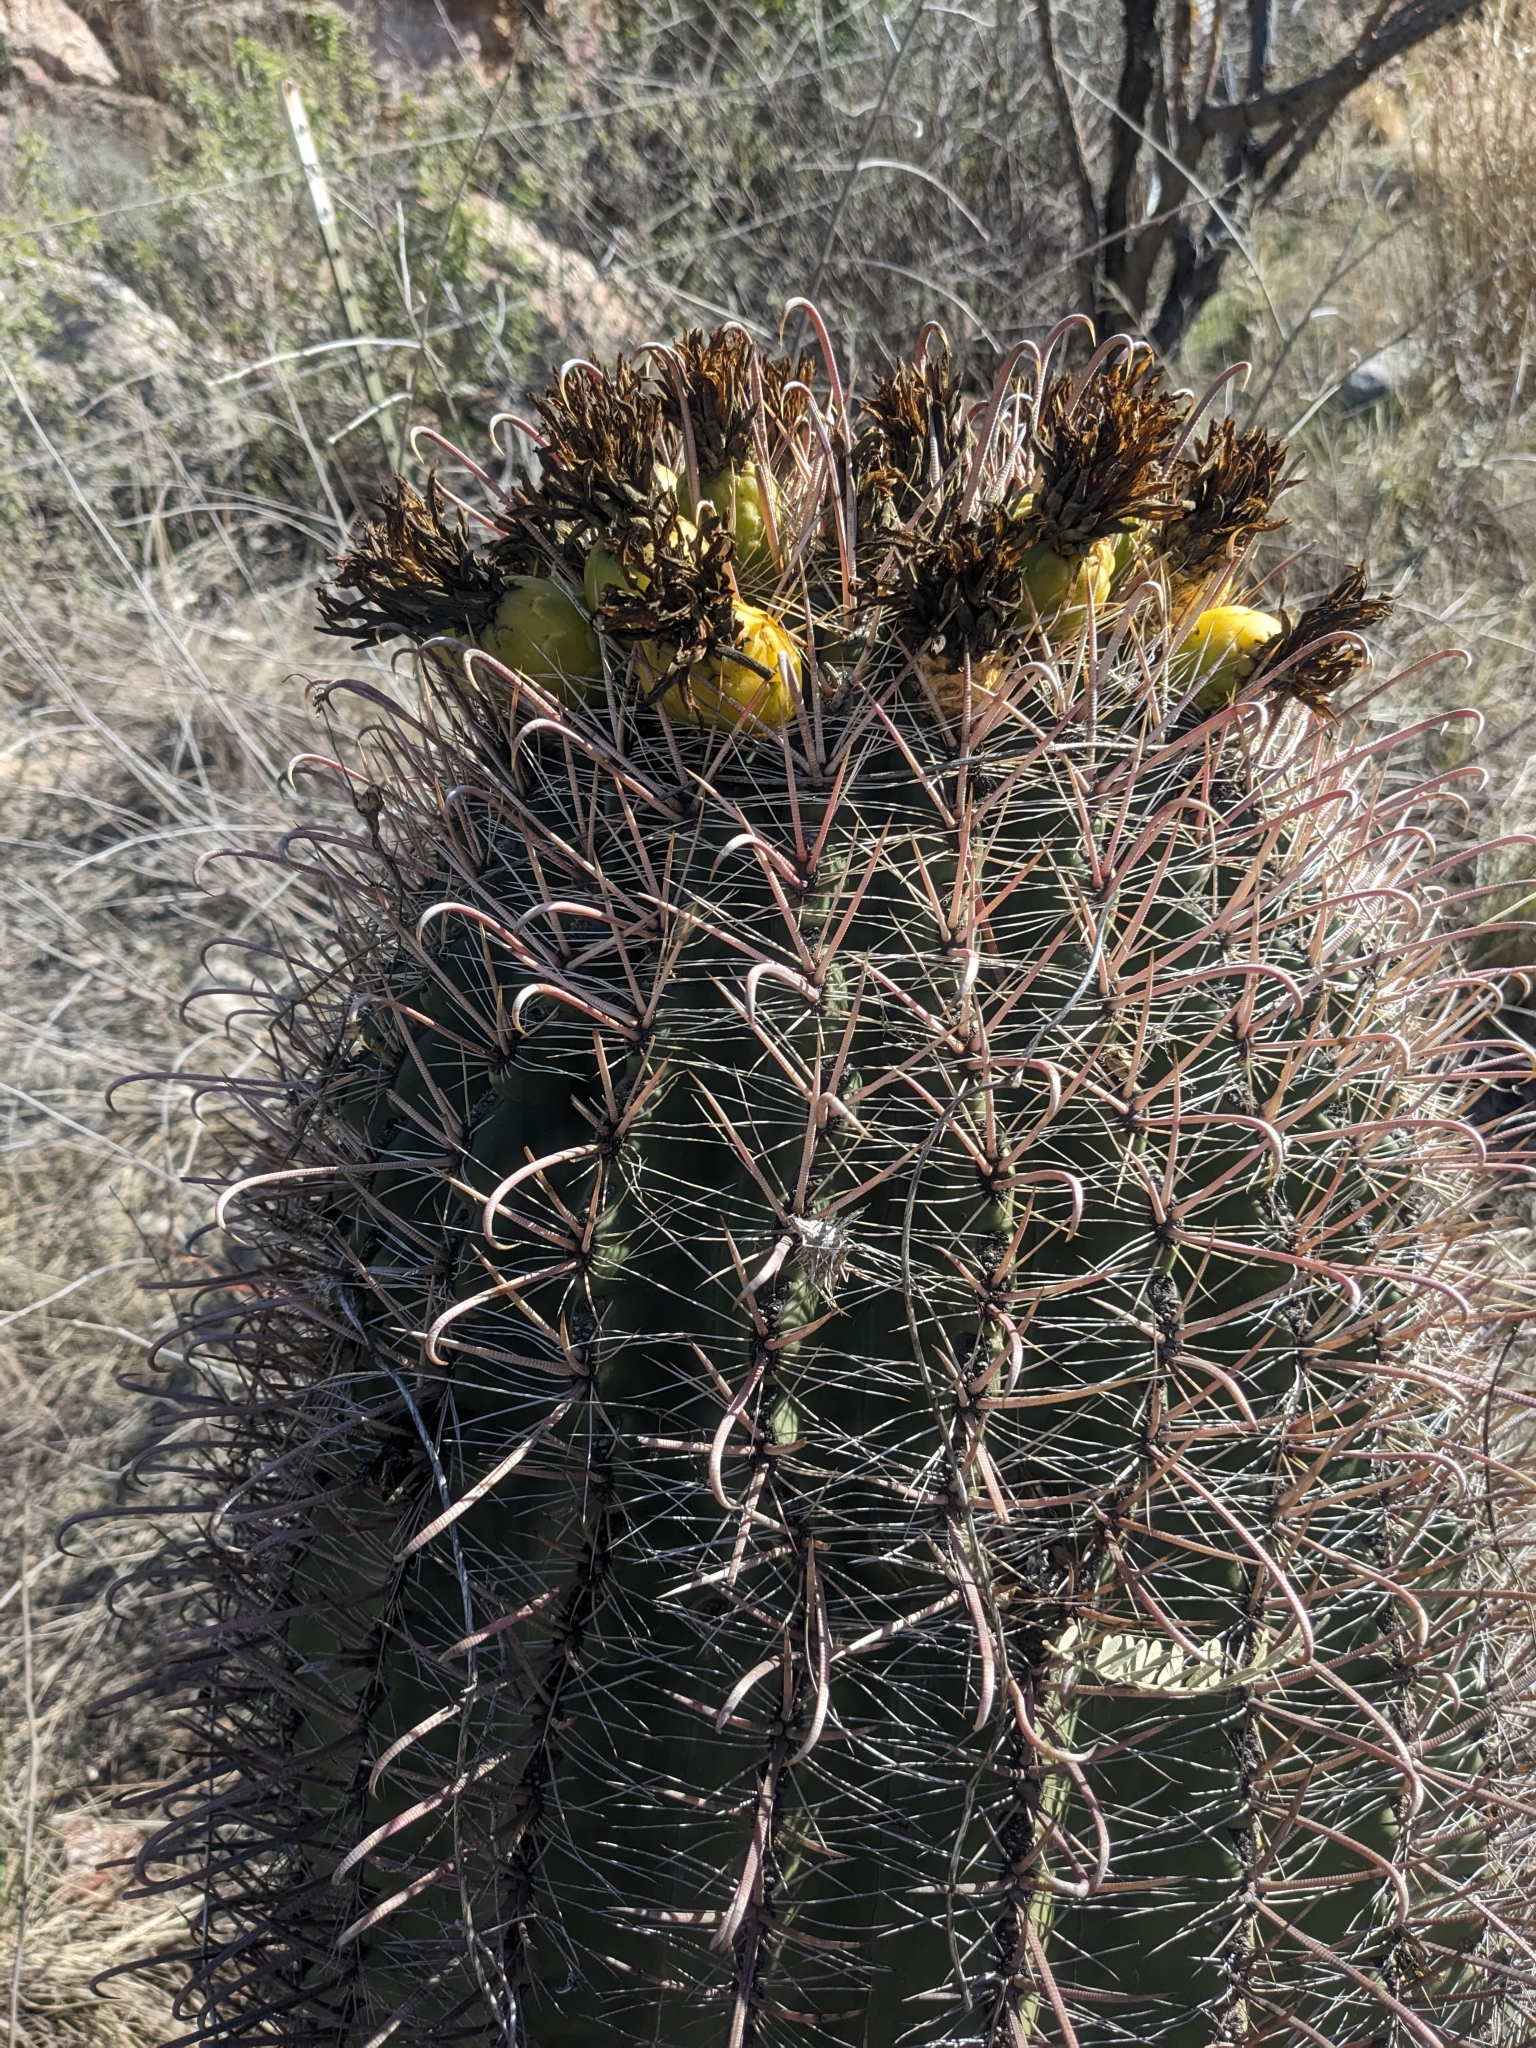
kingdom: Plantae
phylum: Tracheophyta
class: Magnoliopsida
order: Caryophyllales
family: Cactaceae
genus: Ferocactus
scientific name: Ferocactus wislizeni
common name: Candy barrel cactus
